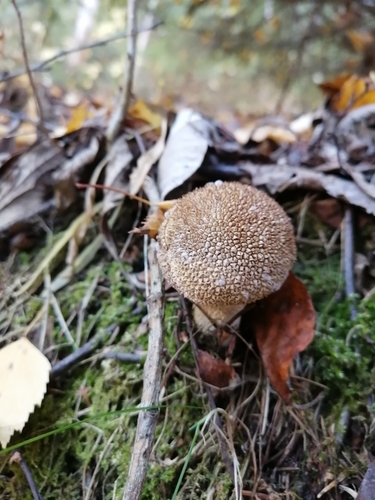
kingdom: Fungi
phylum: Basidiomycota
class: Agaricomycetes
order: Agaricales
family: Lycoperdaceae
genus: Lycoperdon
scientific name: Lycoperdon
